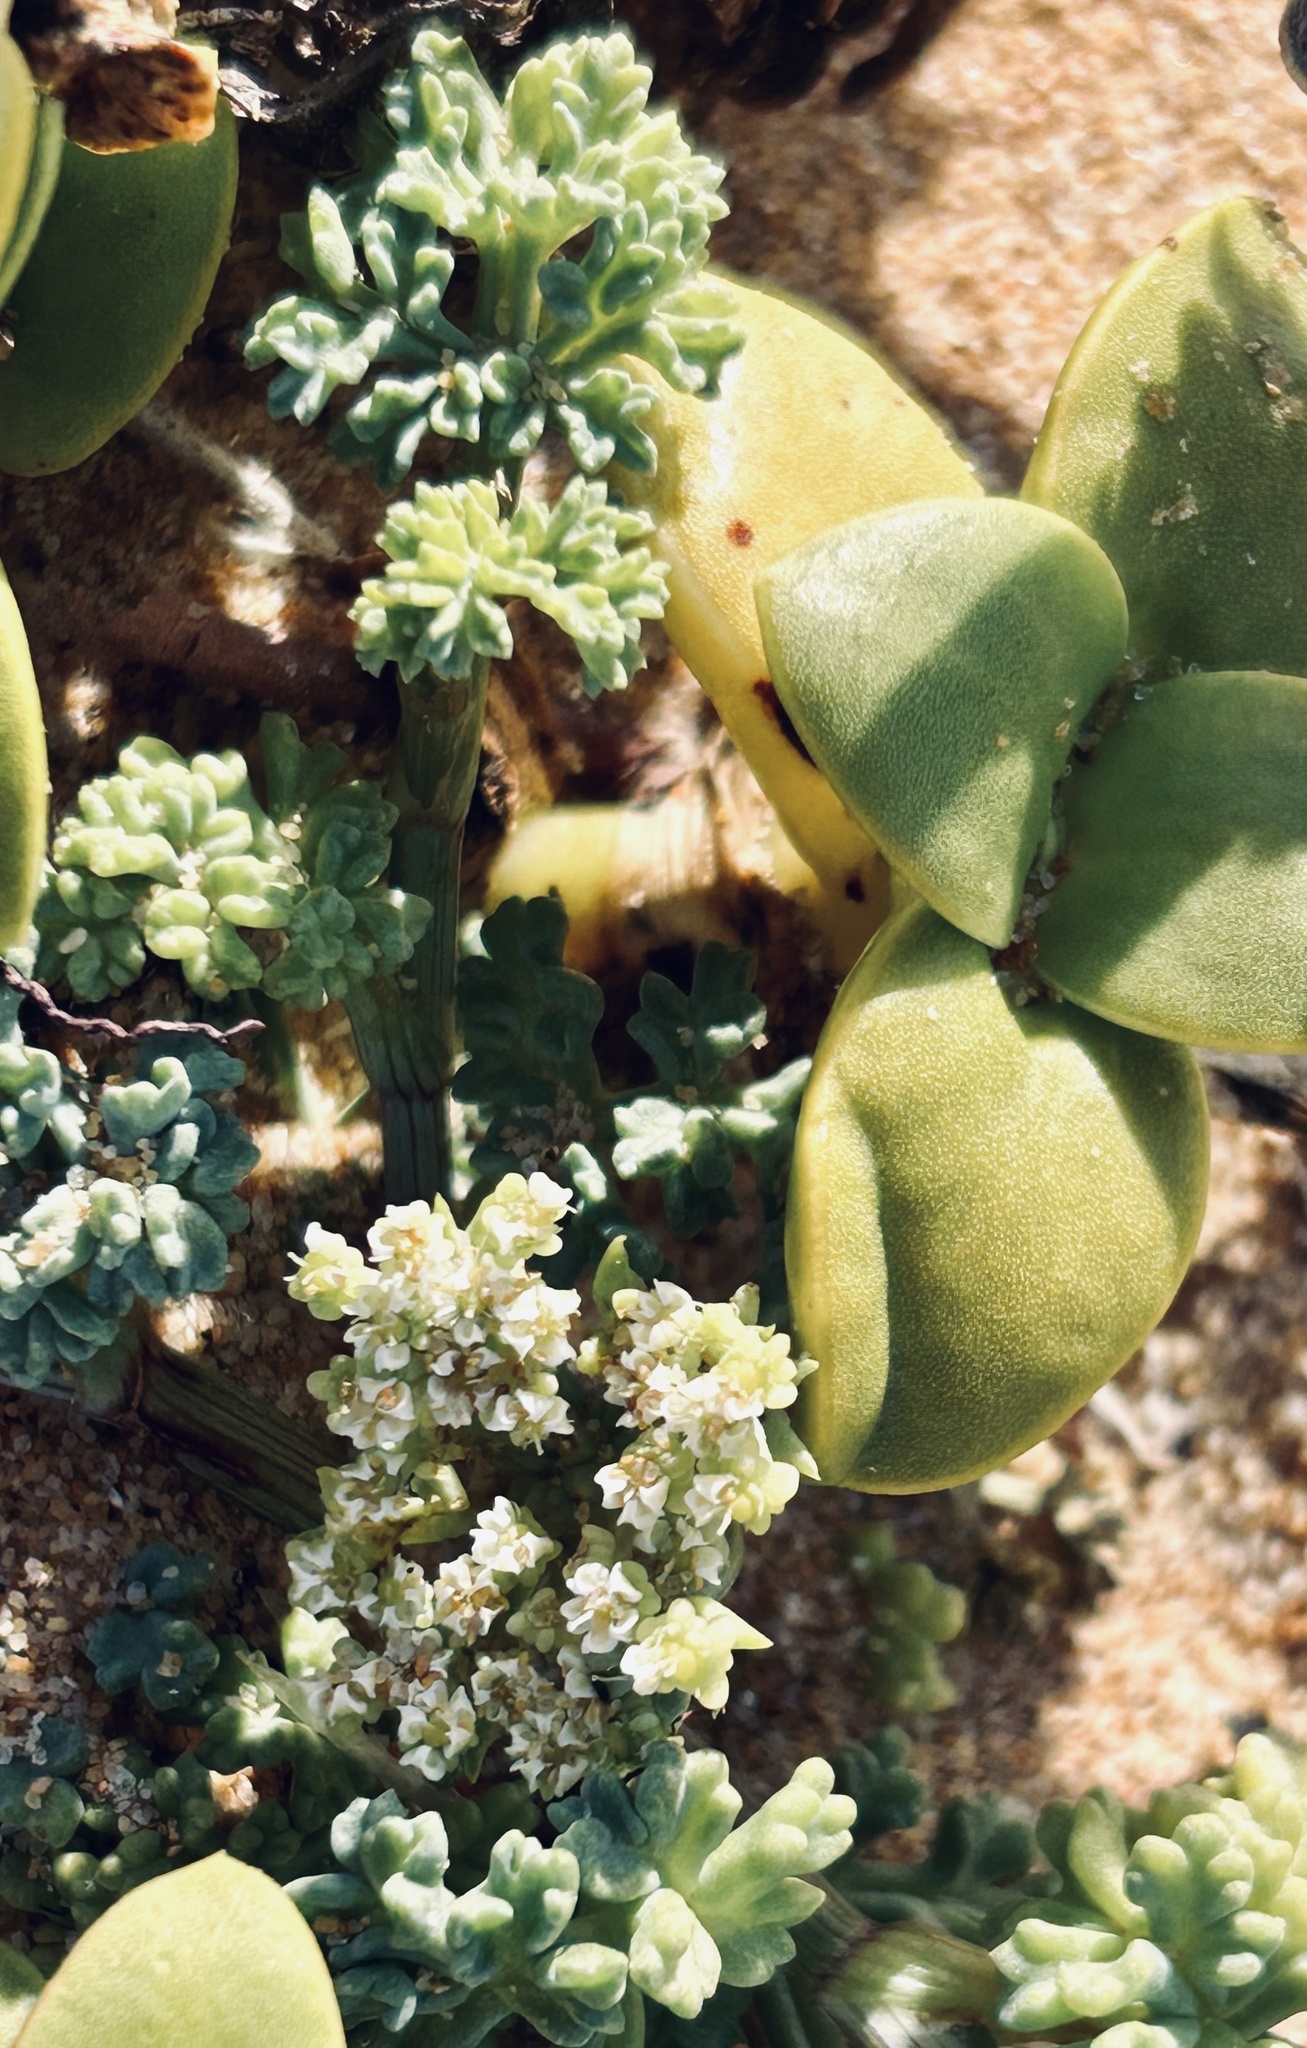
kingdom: Plantae
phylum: Tracheophyta
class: Magnoliopsida
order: Apiales
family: Apiaceae
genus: Dasispermum
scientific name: Dasispermum suffruticosum
